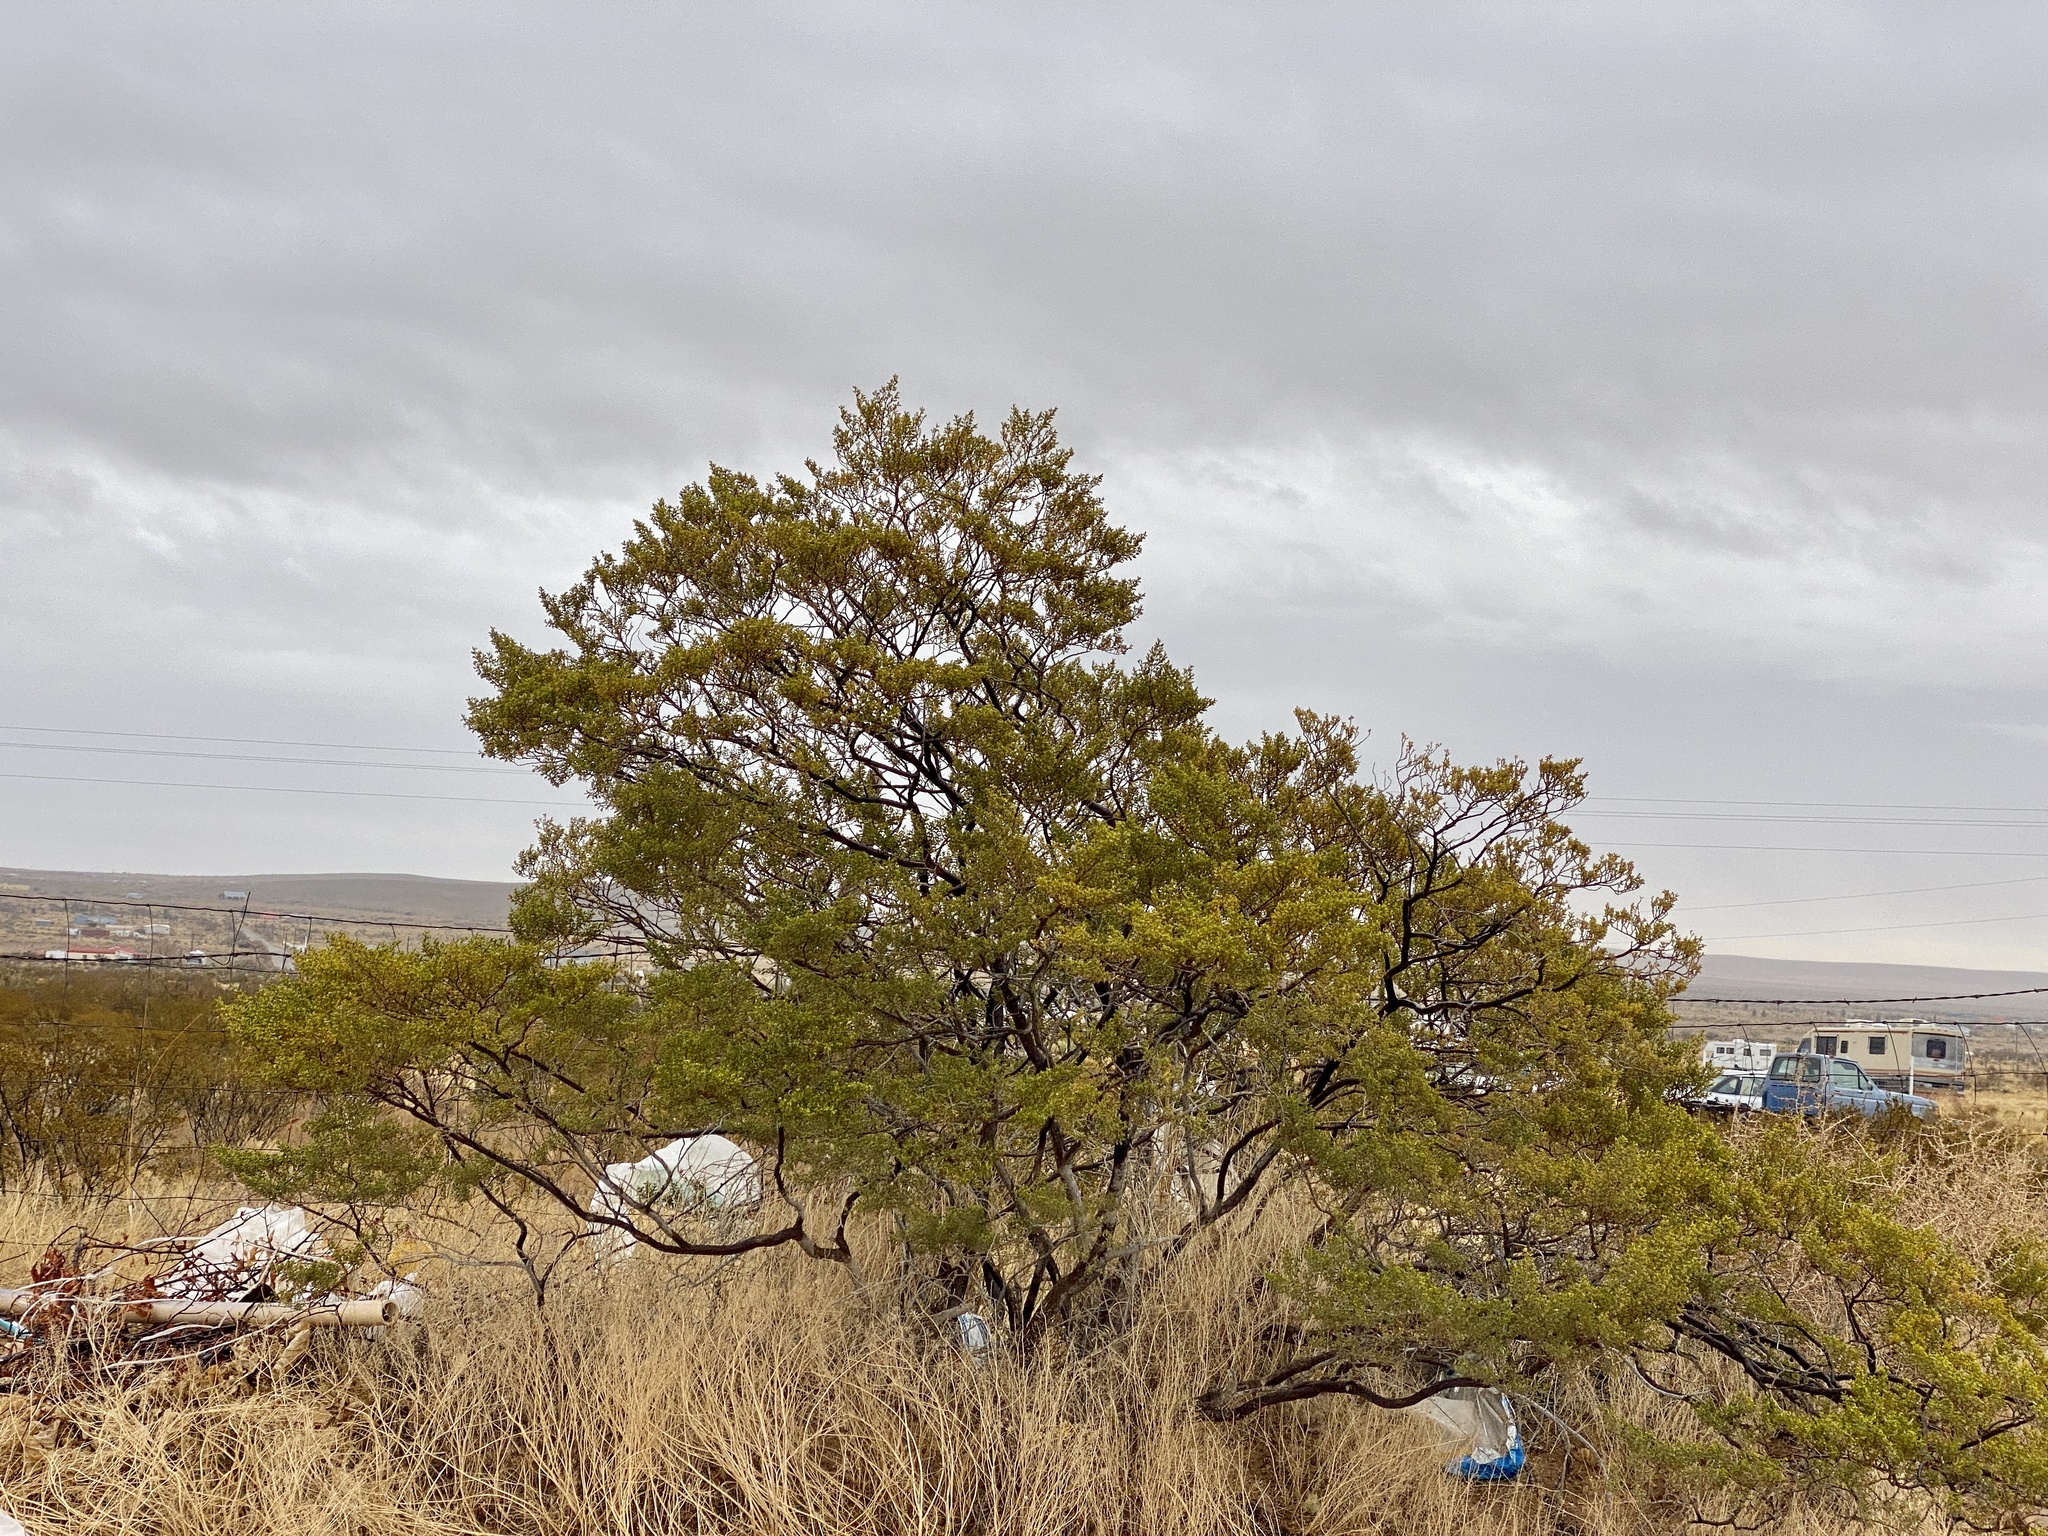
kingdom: Plantae
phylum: Tracheophyta
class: Magnoliopsida
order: Zygophyllales
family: Zygophyllaceae
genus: Larrea
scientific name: Larrea tridentata
